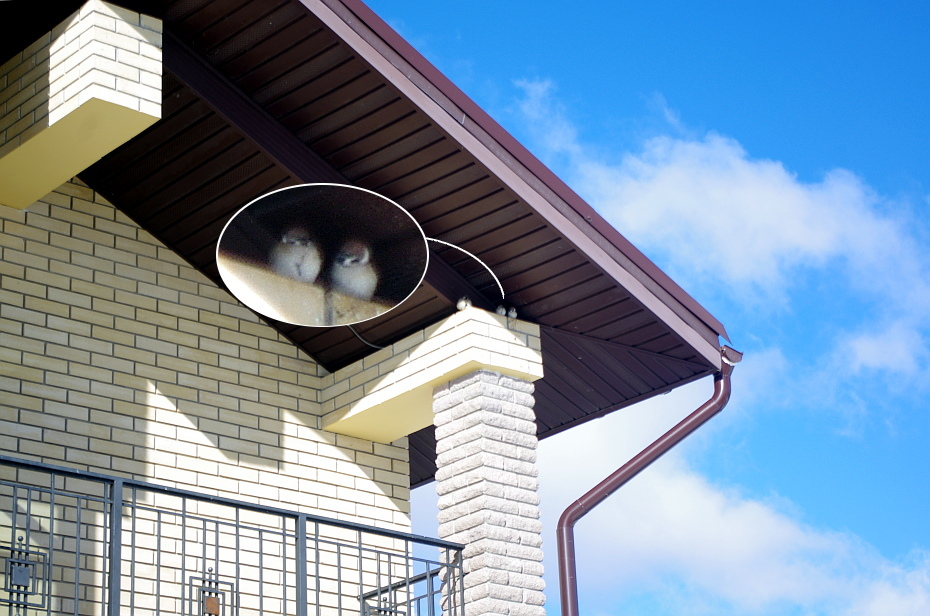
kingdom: Animalia
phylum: Chordata
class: Aves
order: Passeriformes
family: Passeridae
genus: Passer
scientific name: Passer montanus
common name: Eurasian tree sparrow
